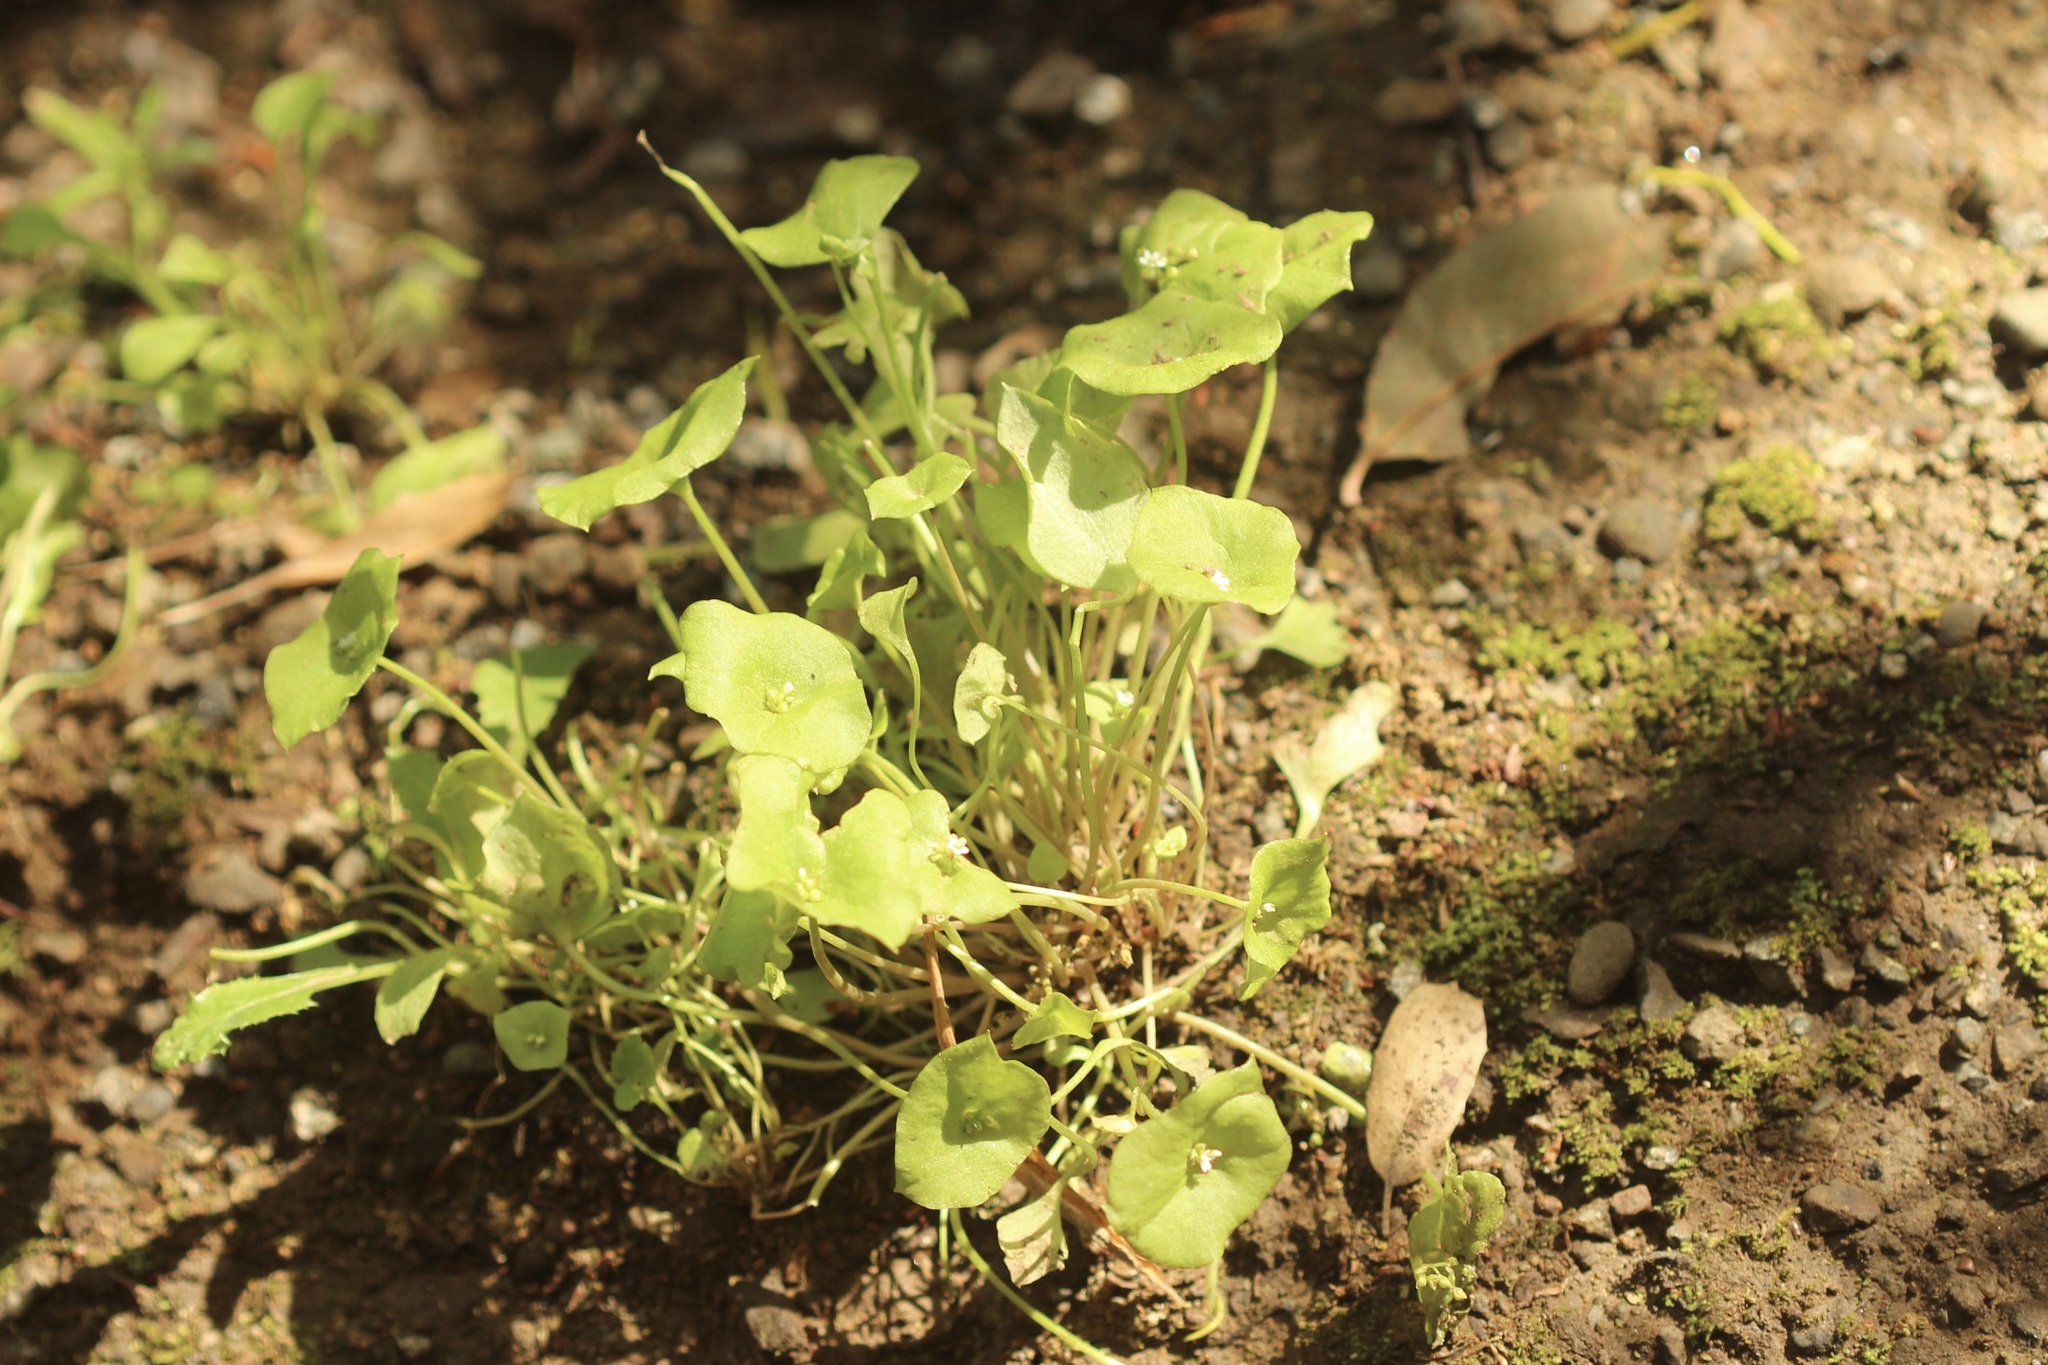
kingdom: Plantae
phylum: Tracheophyta
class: Magnoliopsida
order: Caryophyllales
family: Montiaceae
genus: Claytonia
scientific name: Claytonia perfoliata
